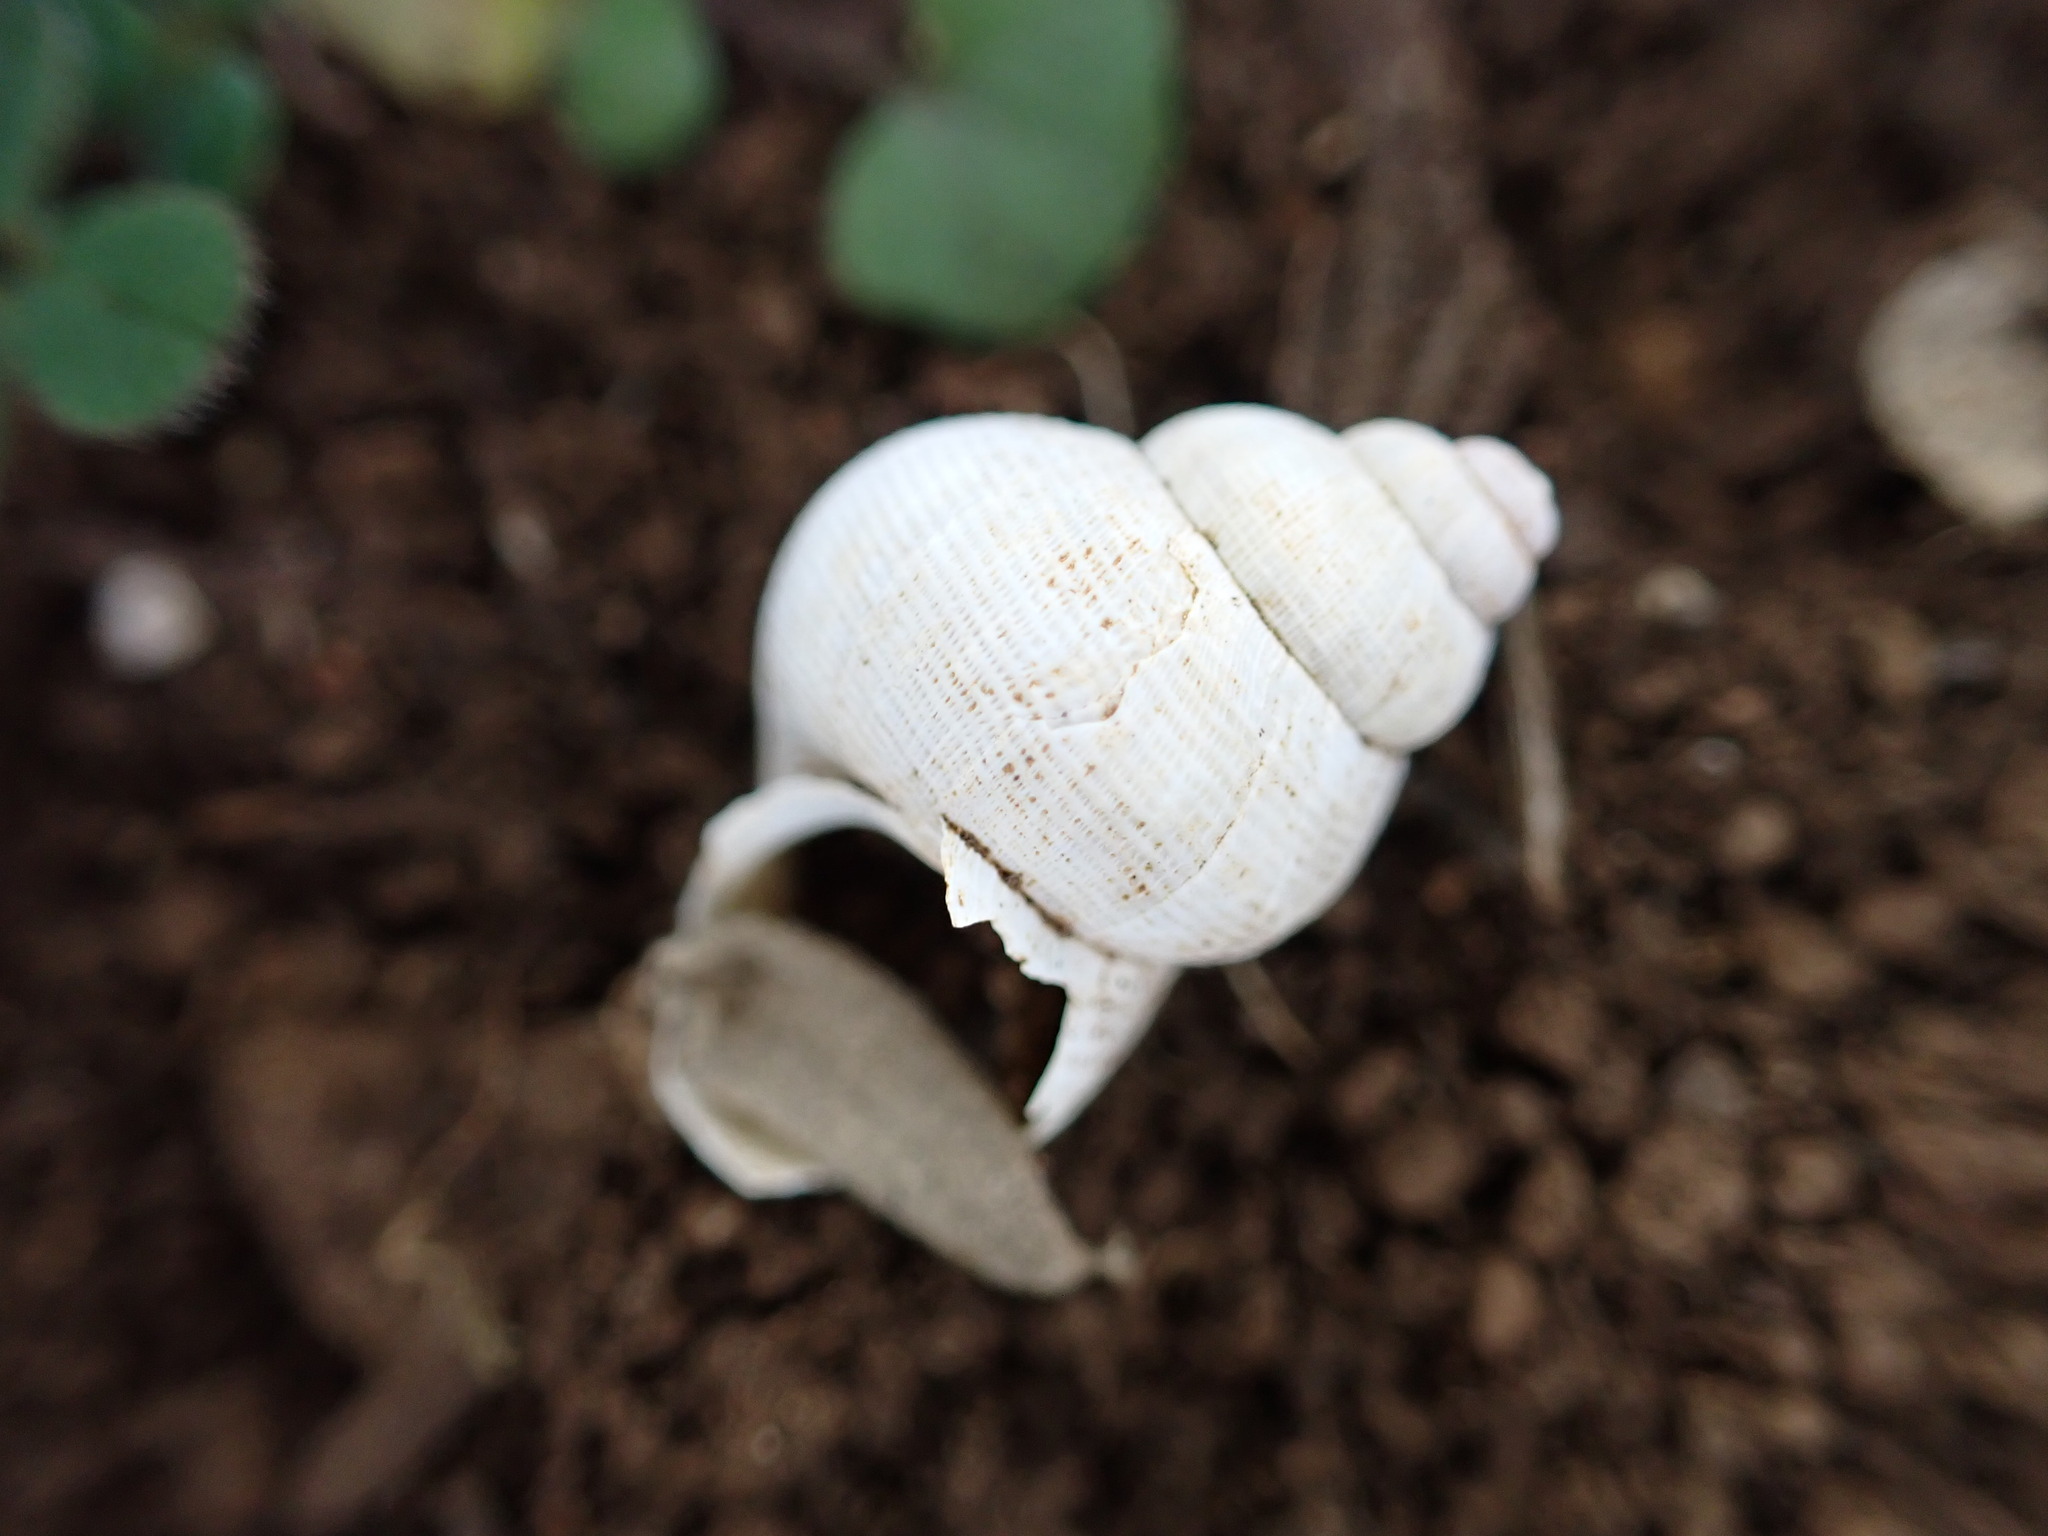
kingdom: Animalia
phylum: Mollusca
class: Gastropoda
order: Littorinimorpha
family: Pomatiidae
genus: Pomatias
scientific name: Pomatias elegans
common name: Red-mouthed snail
